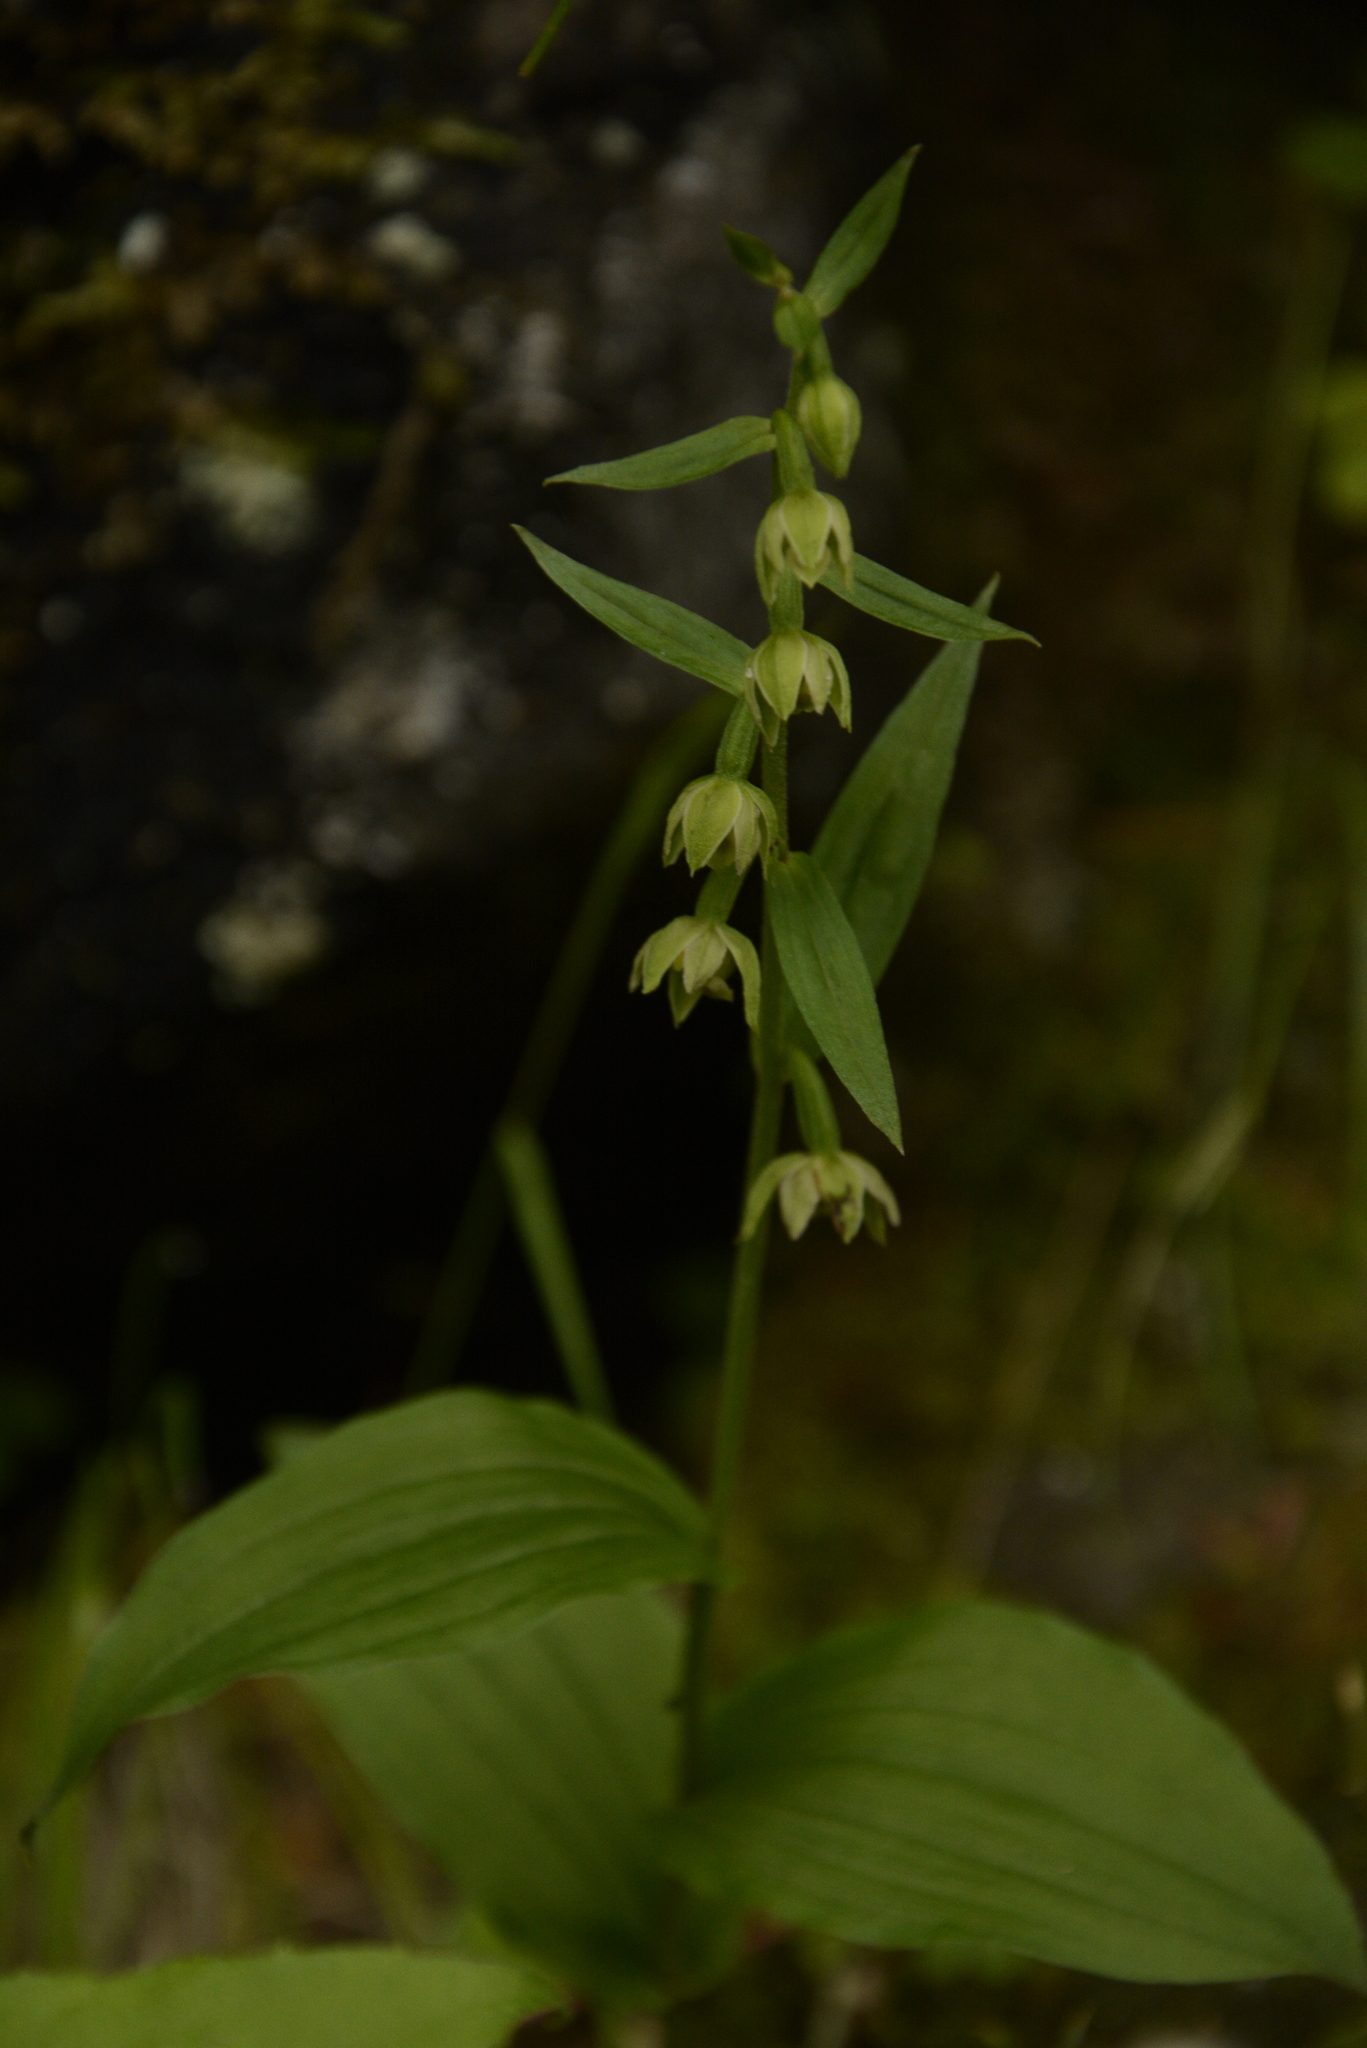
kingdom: Plantae
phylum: Tracheophyta
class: Liliopsida
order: Asparagales
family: Orchidaceae
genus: Epipactis
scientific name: Epipactis helleborine
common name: Broad-leaved helleborine
